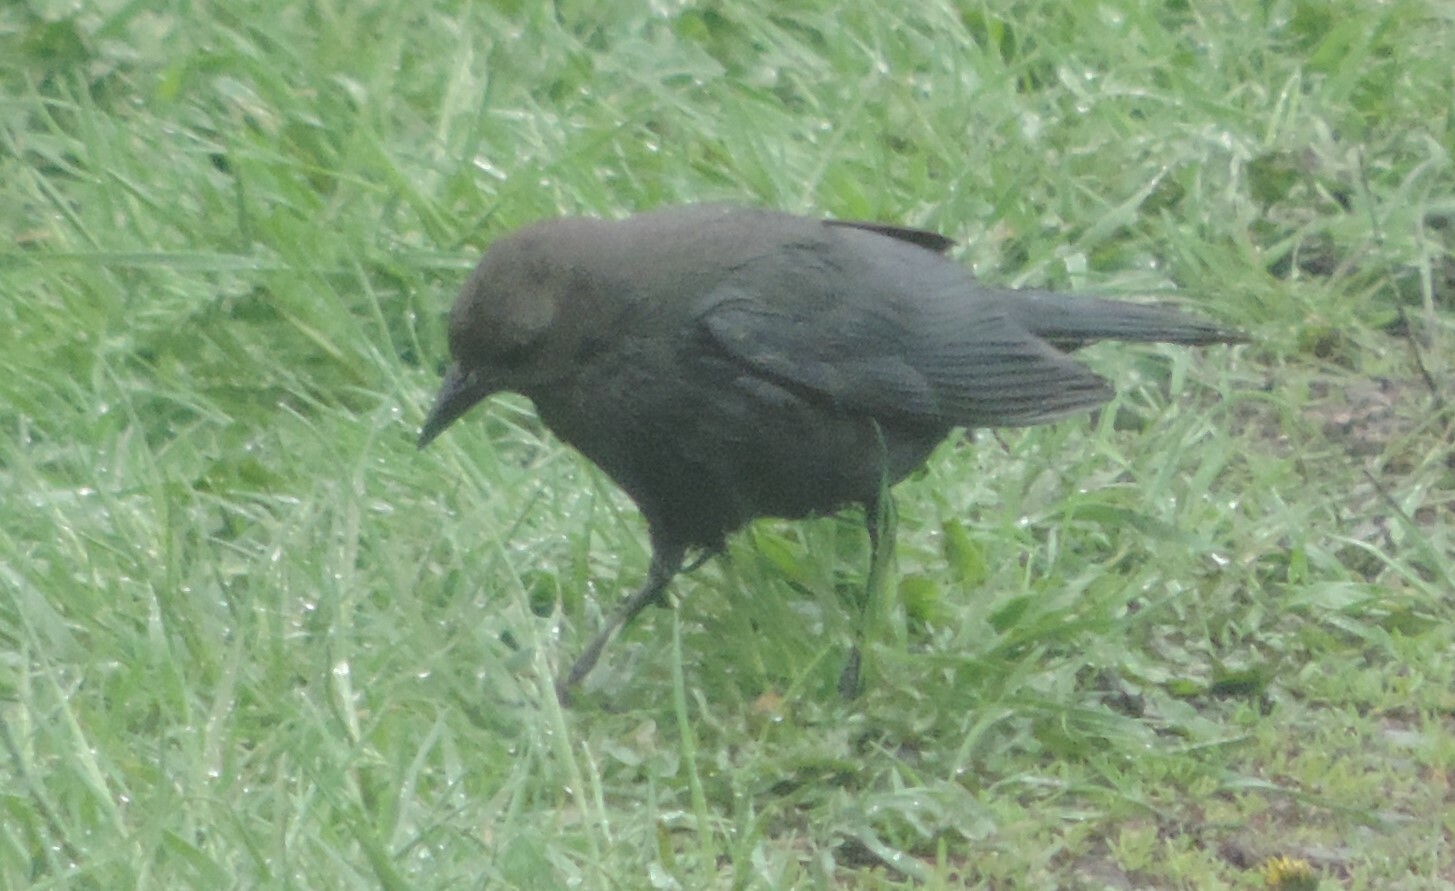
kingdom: Animalia
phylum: Chordata
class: Aves
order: Passeriformes
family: Icteridae
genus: Euphagus
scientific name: Euphagus cyanocephalus
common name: Brewer's blackbird
